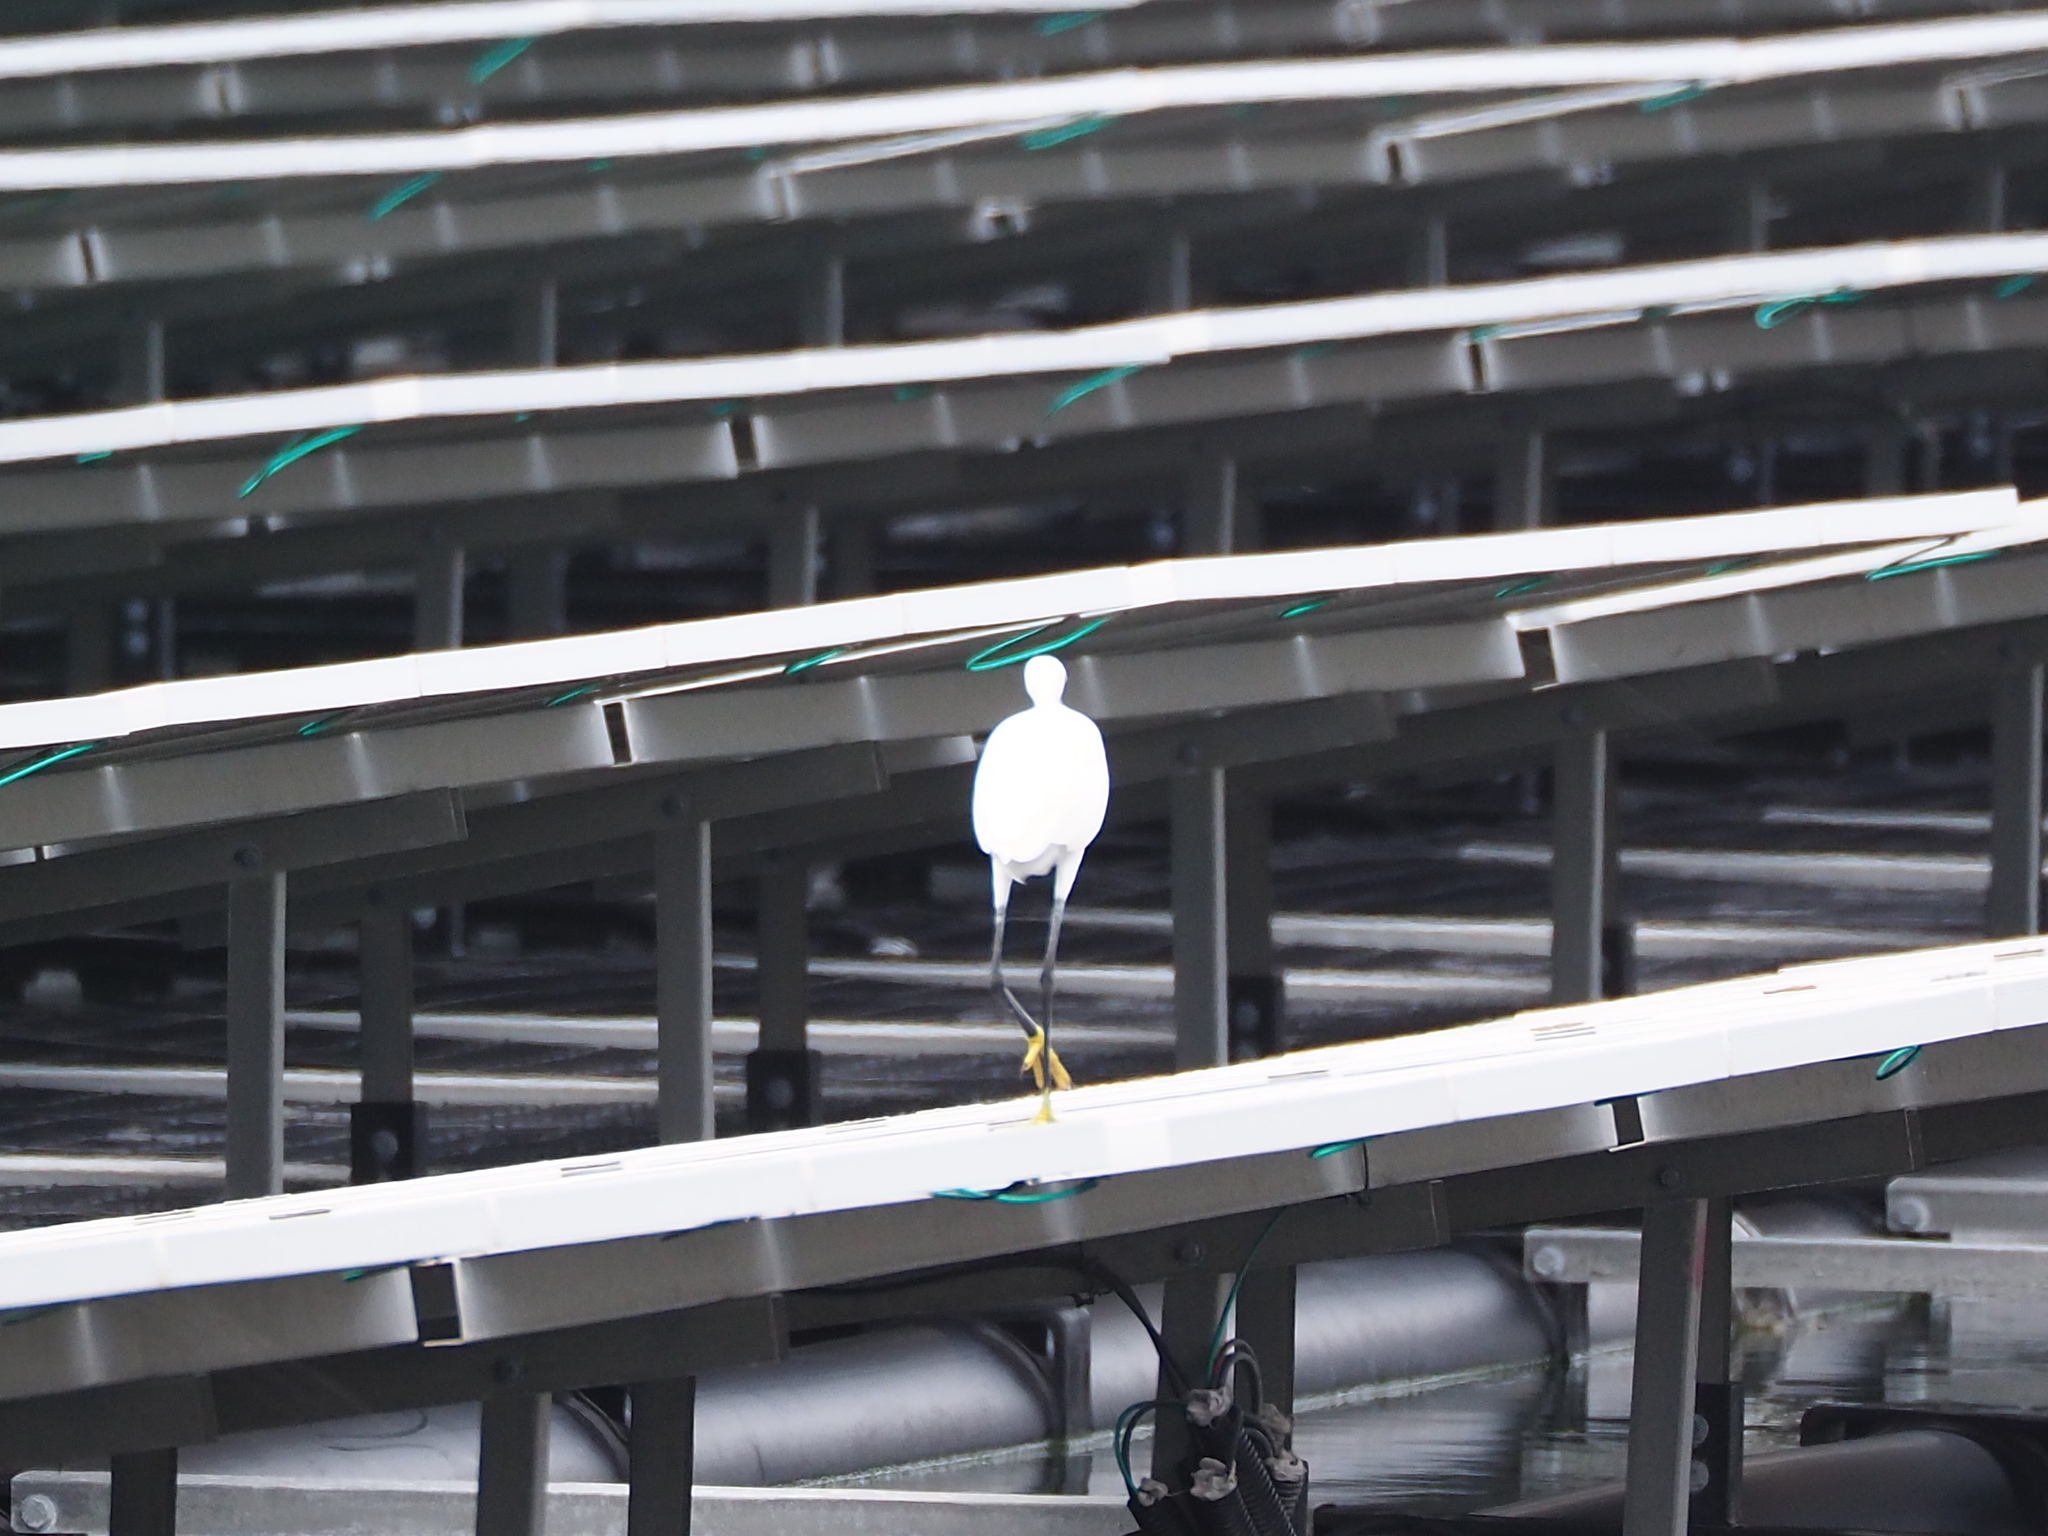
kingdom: Animalia
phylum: Chordata
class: Aves
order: Pelecaniformes
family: Ardeidae
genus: Egretta
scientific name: Egretta garzetta
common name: Little egret
